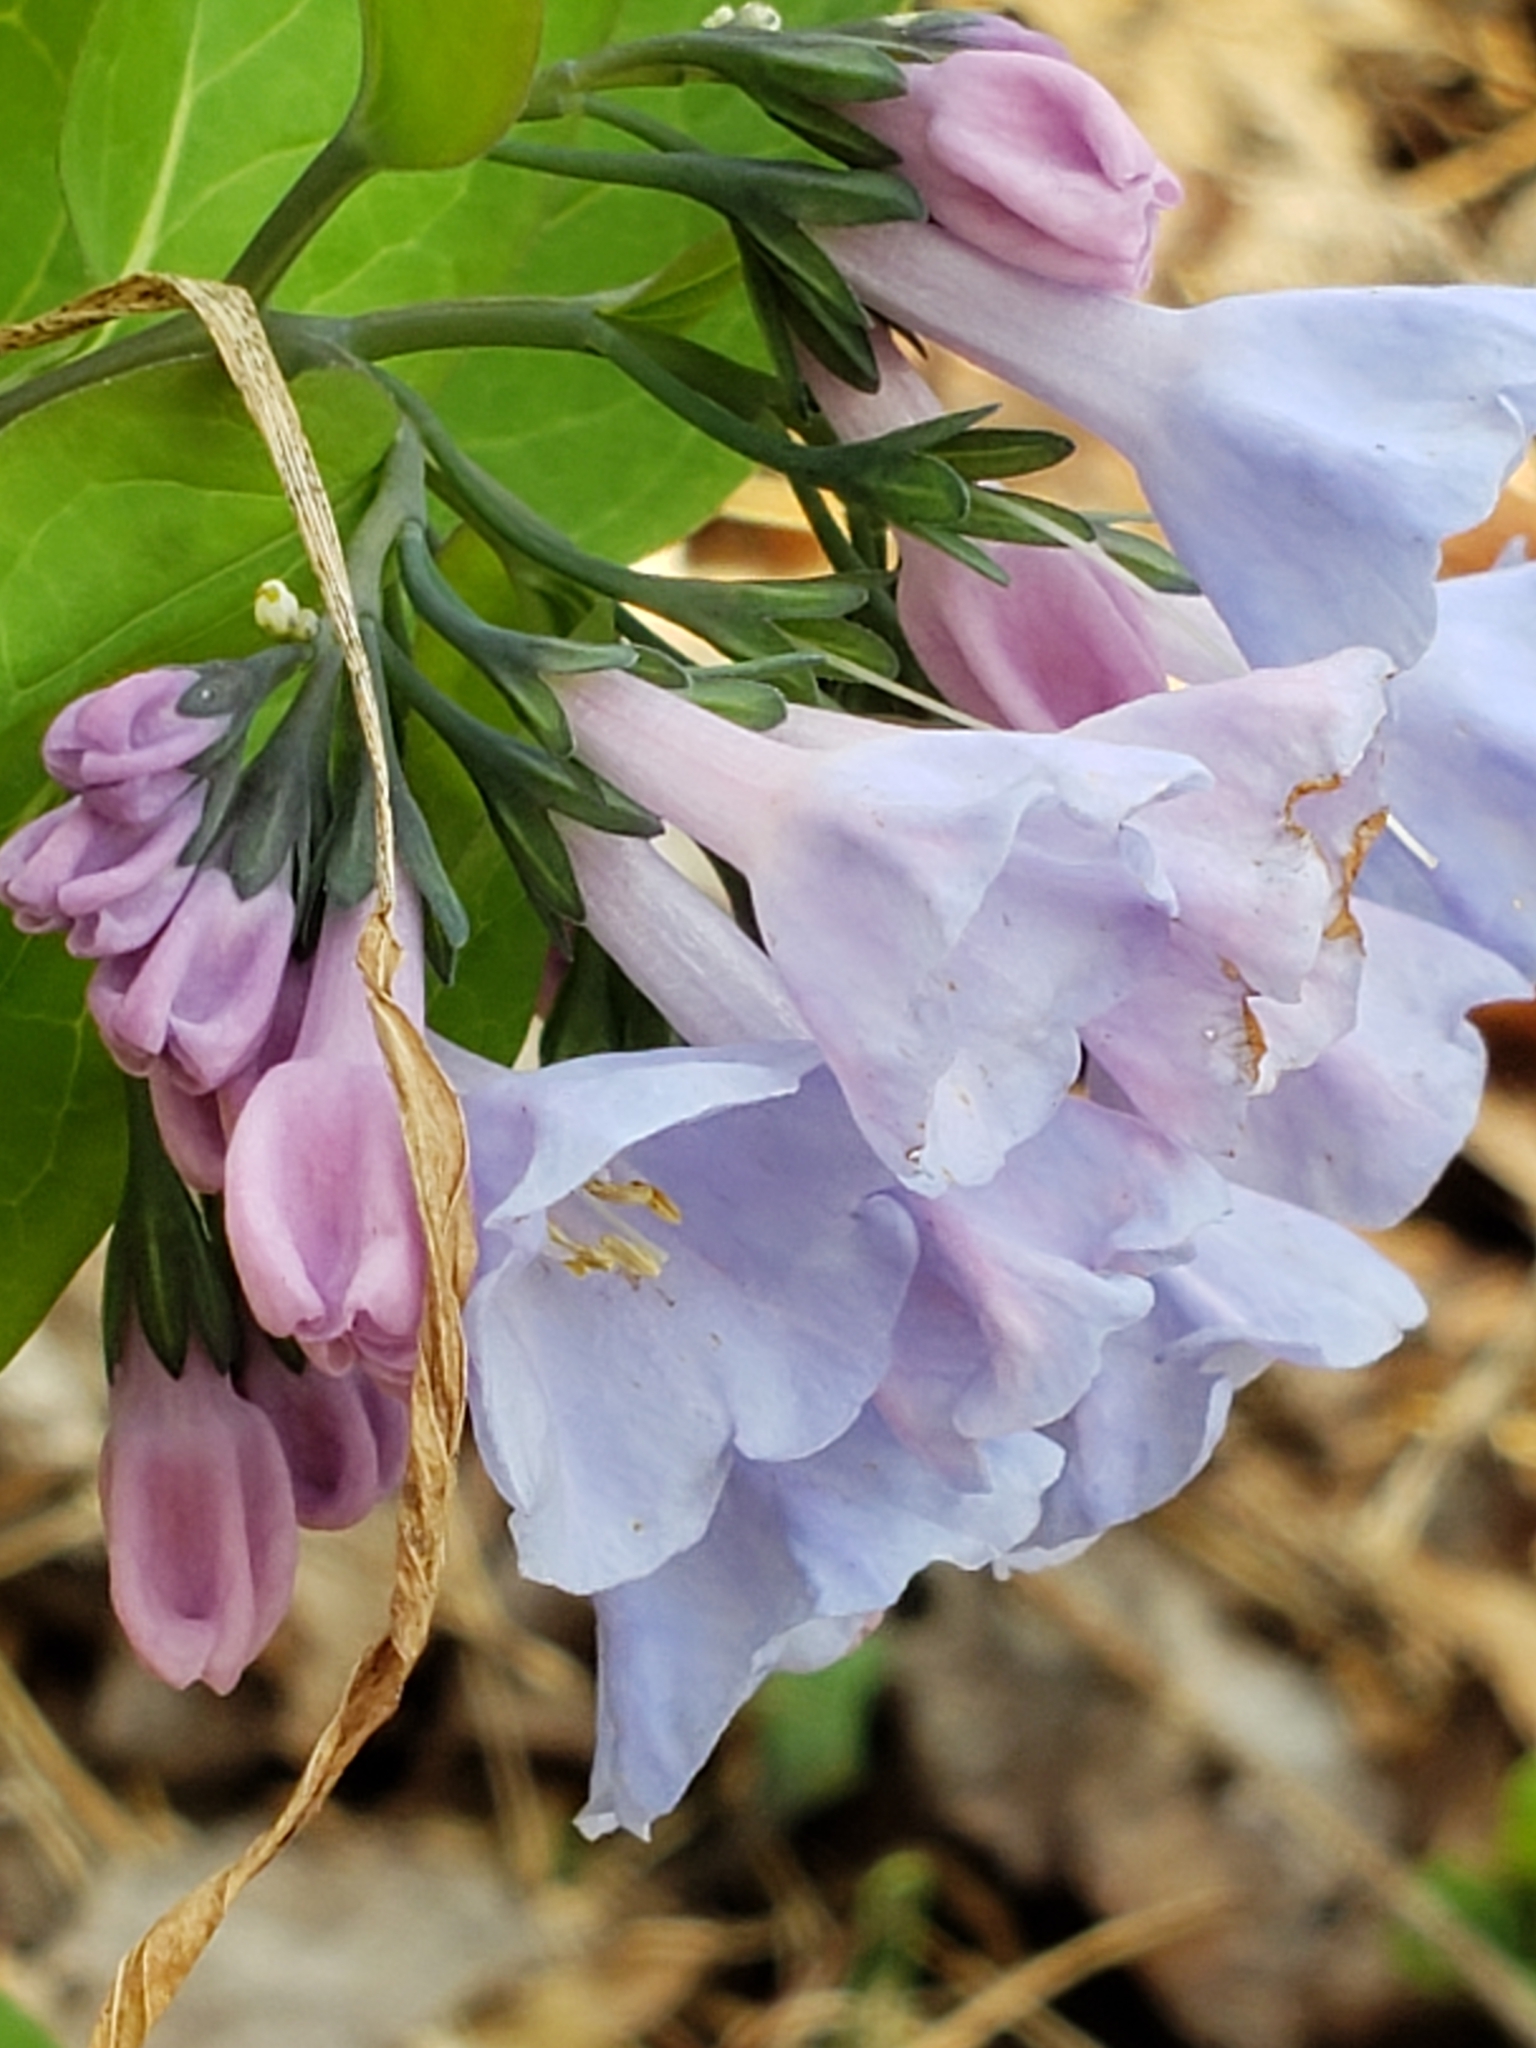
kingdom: Plantae
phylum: Tracheophyta
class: Magnoliopsida
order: Boraginales
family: Boraginaceae
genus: Mertensia
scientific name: Mertensia virginica
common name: Virginia bluebells
